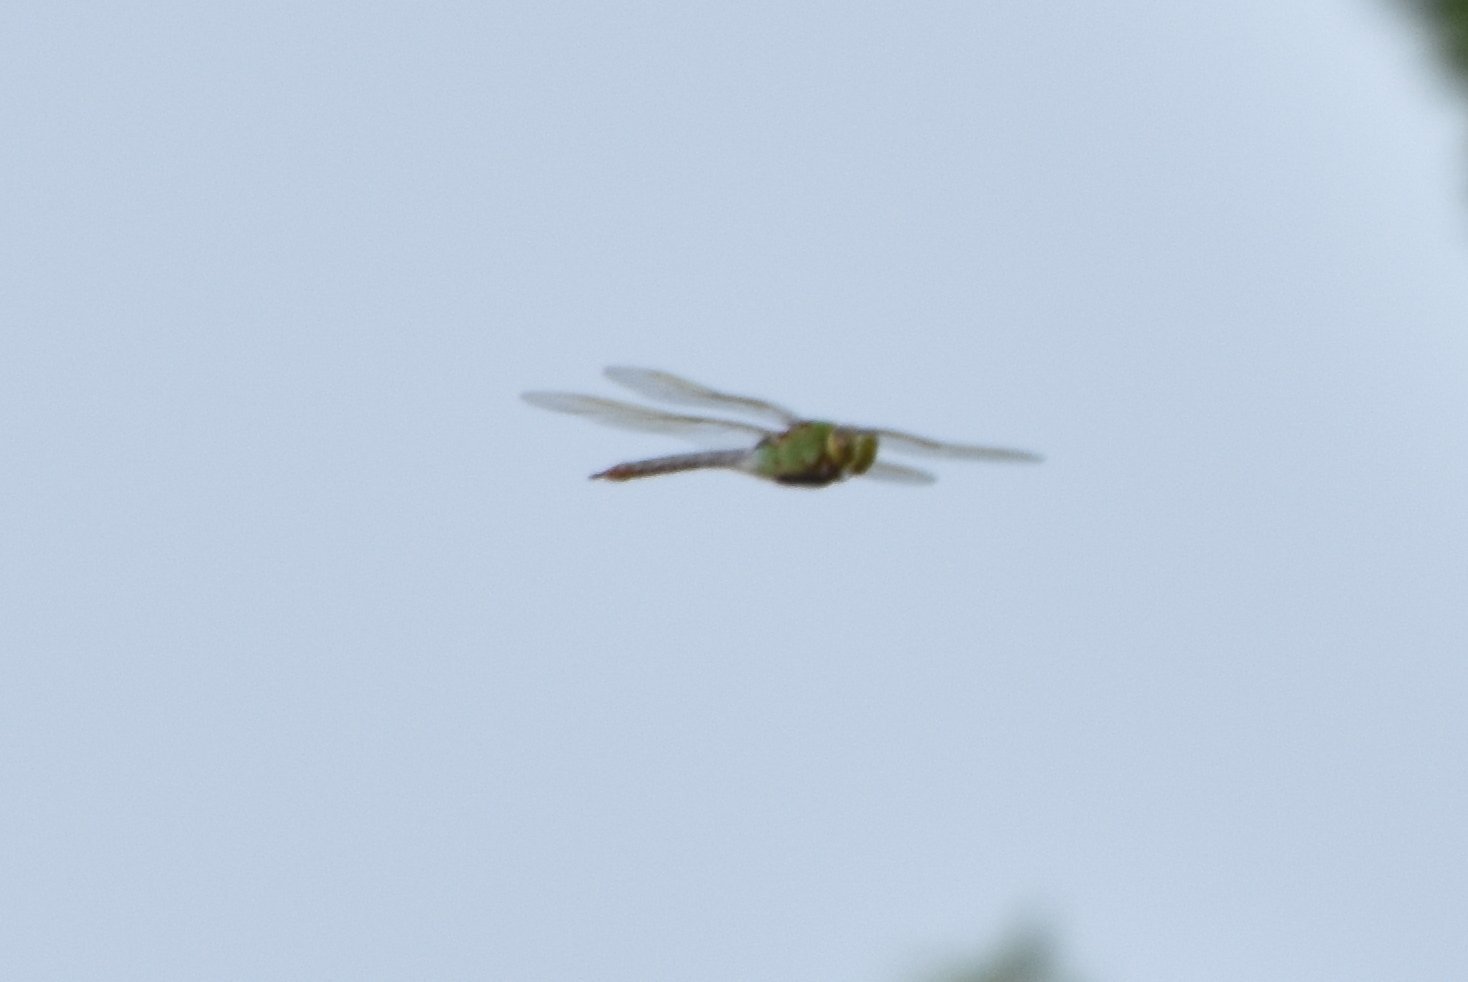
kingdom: Animalia
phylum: Arthropoda
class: Insecta
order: Odonata
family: Aeshnidae
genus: Anax
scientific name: Anax junius
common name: Common green darner
